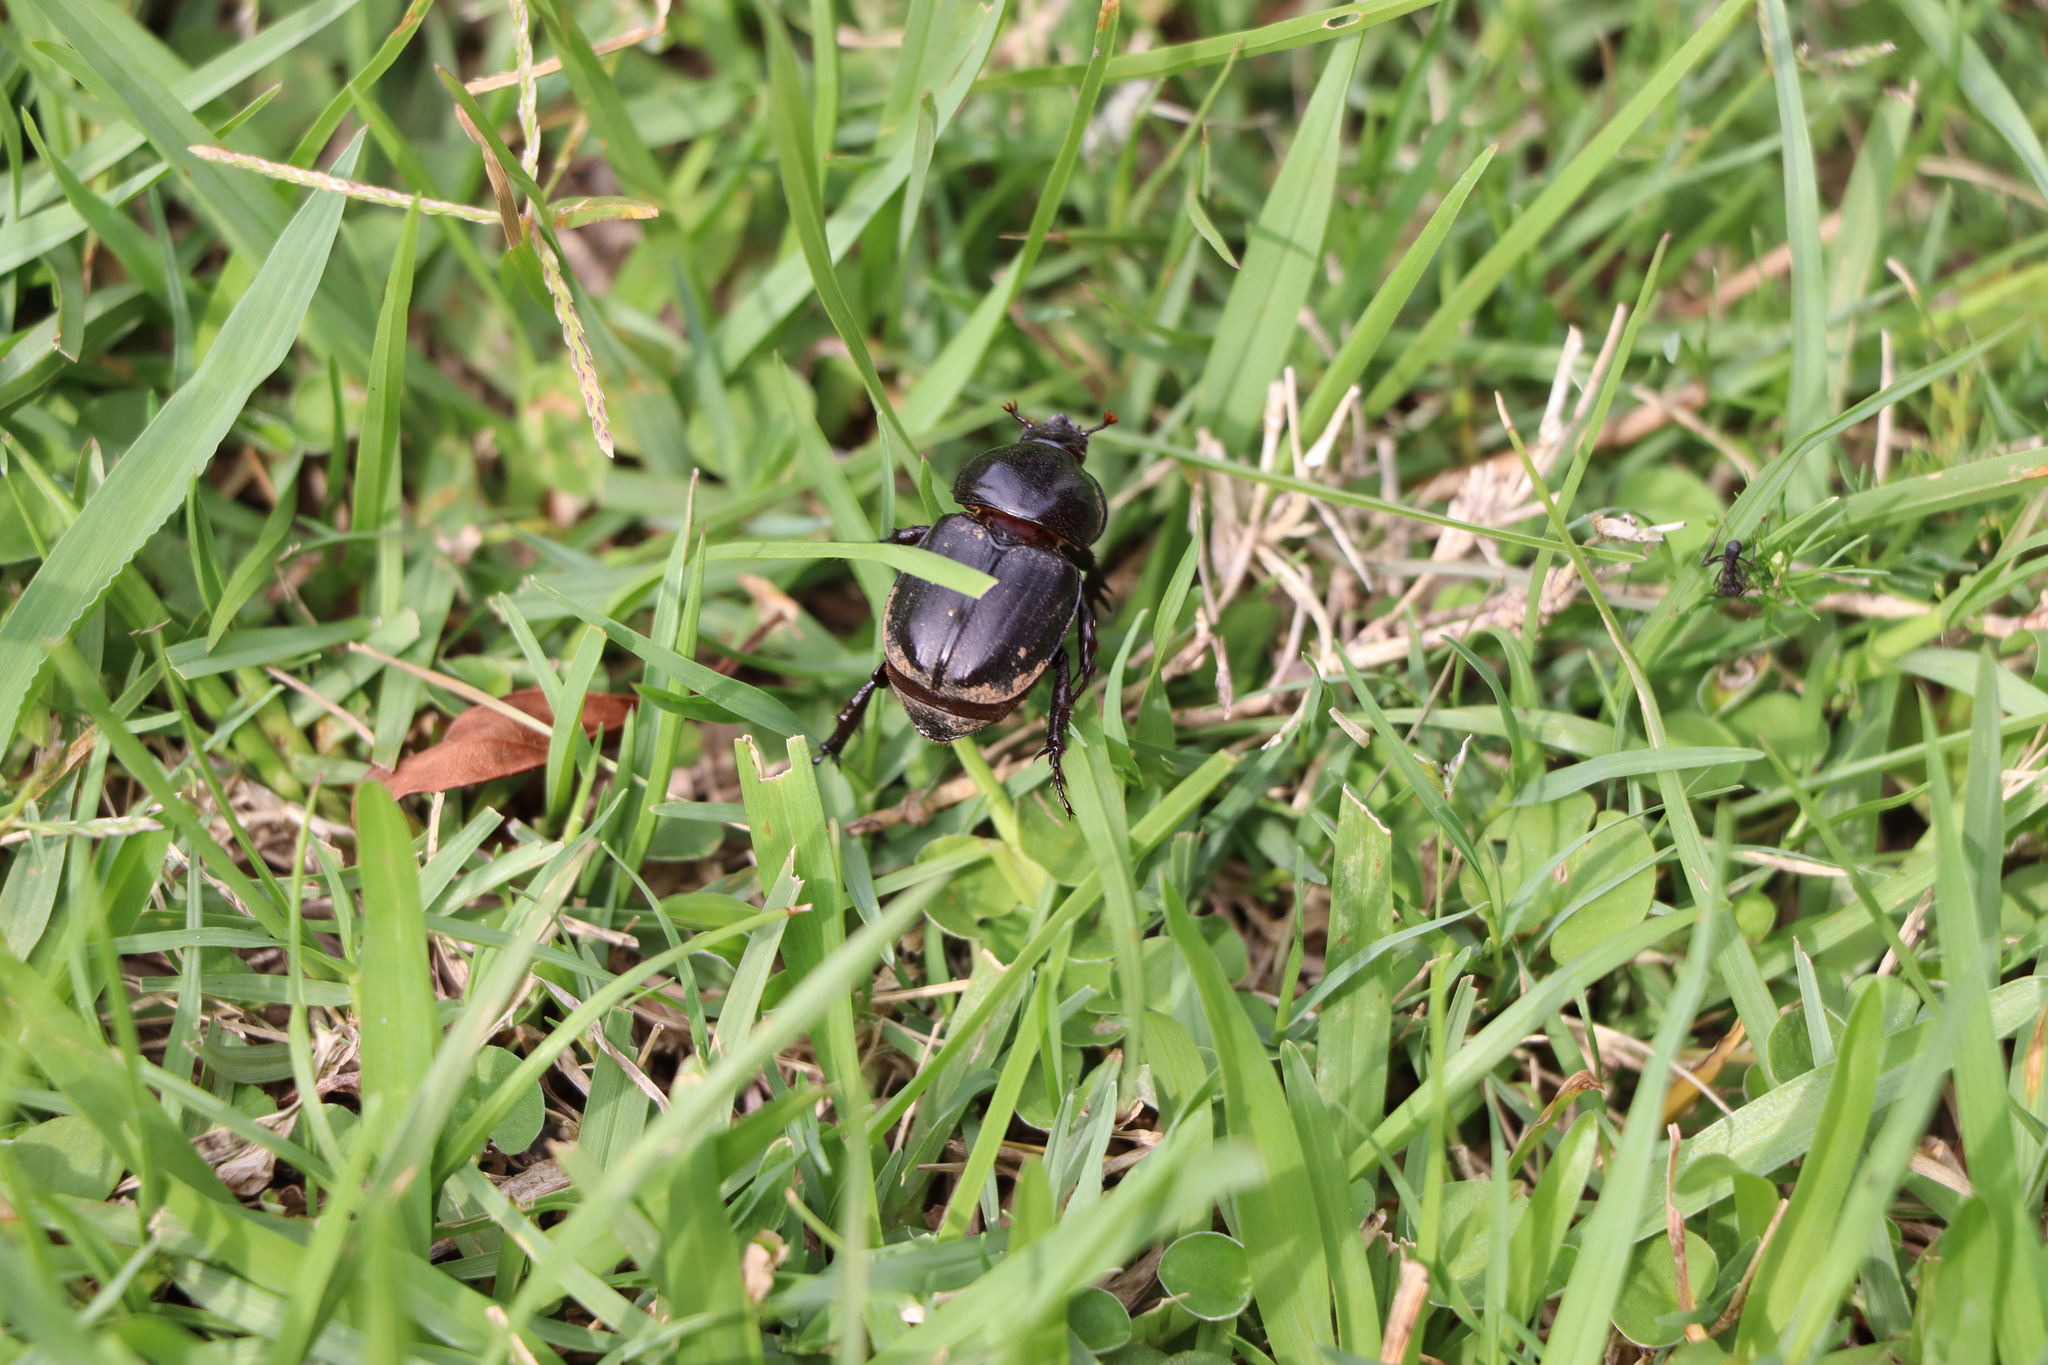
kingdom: Animalia
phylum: Arthropoda
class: Insecta
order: Coleoptera
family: Scarabaeidae
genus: Diloboderus
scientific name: Diloboderus abderus
